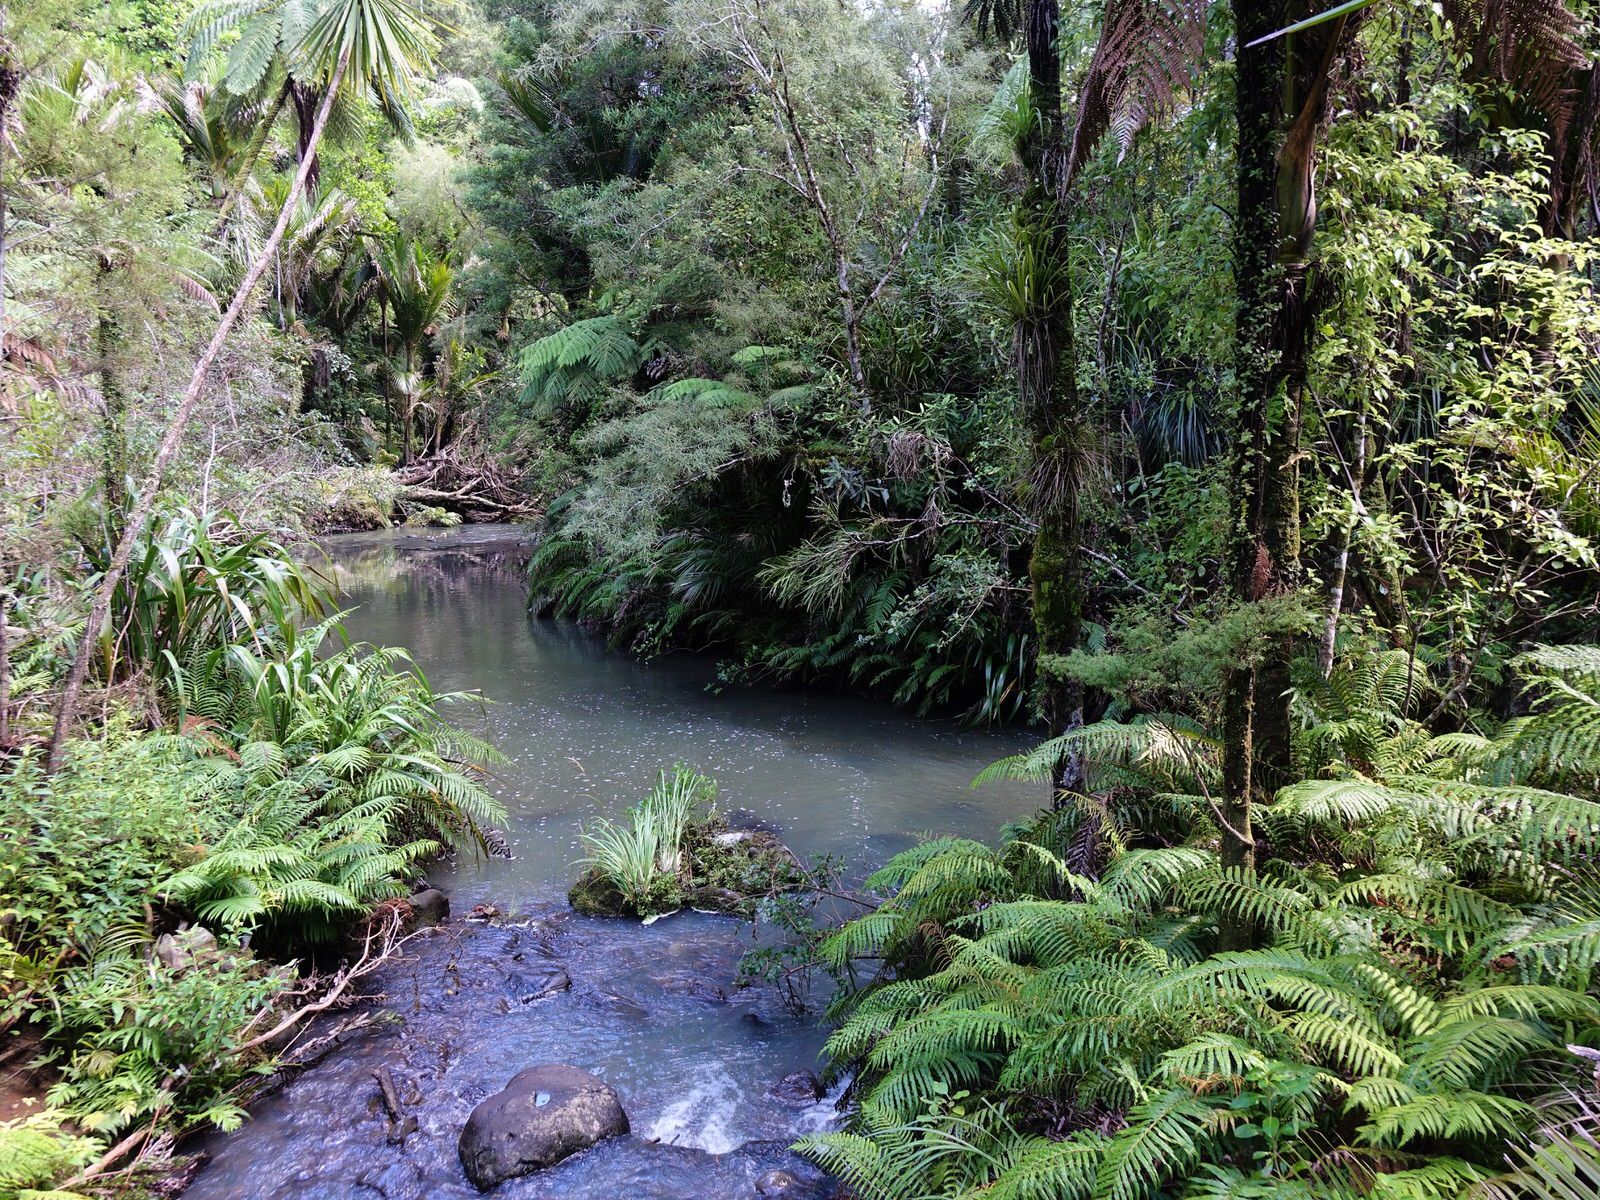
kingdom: Plantae
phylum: Tracheophyta
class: Polypodiopsida
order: Polypodiales
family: Blechnaceae
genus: Parablechnum
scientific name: Parablechnum novae-zelandiae
